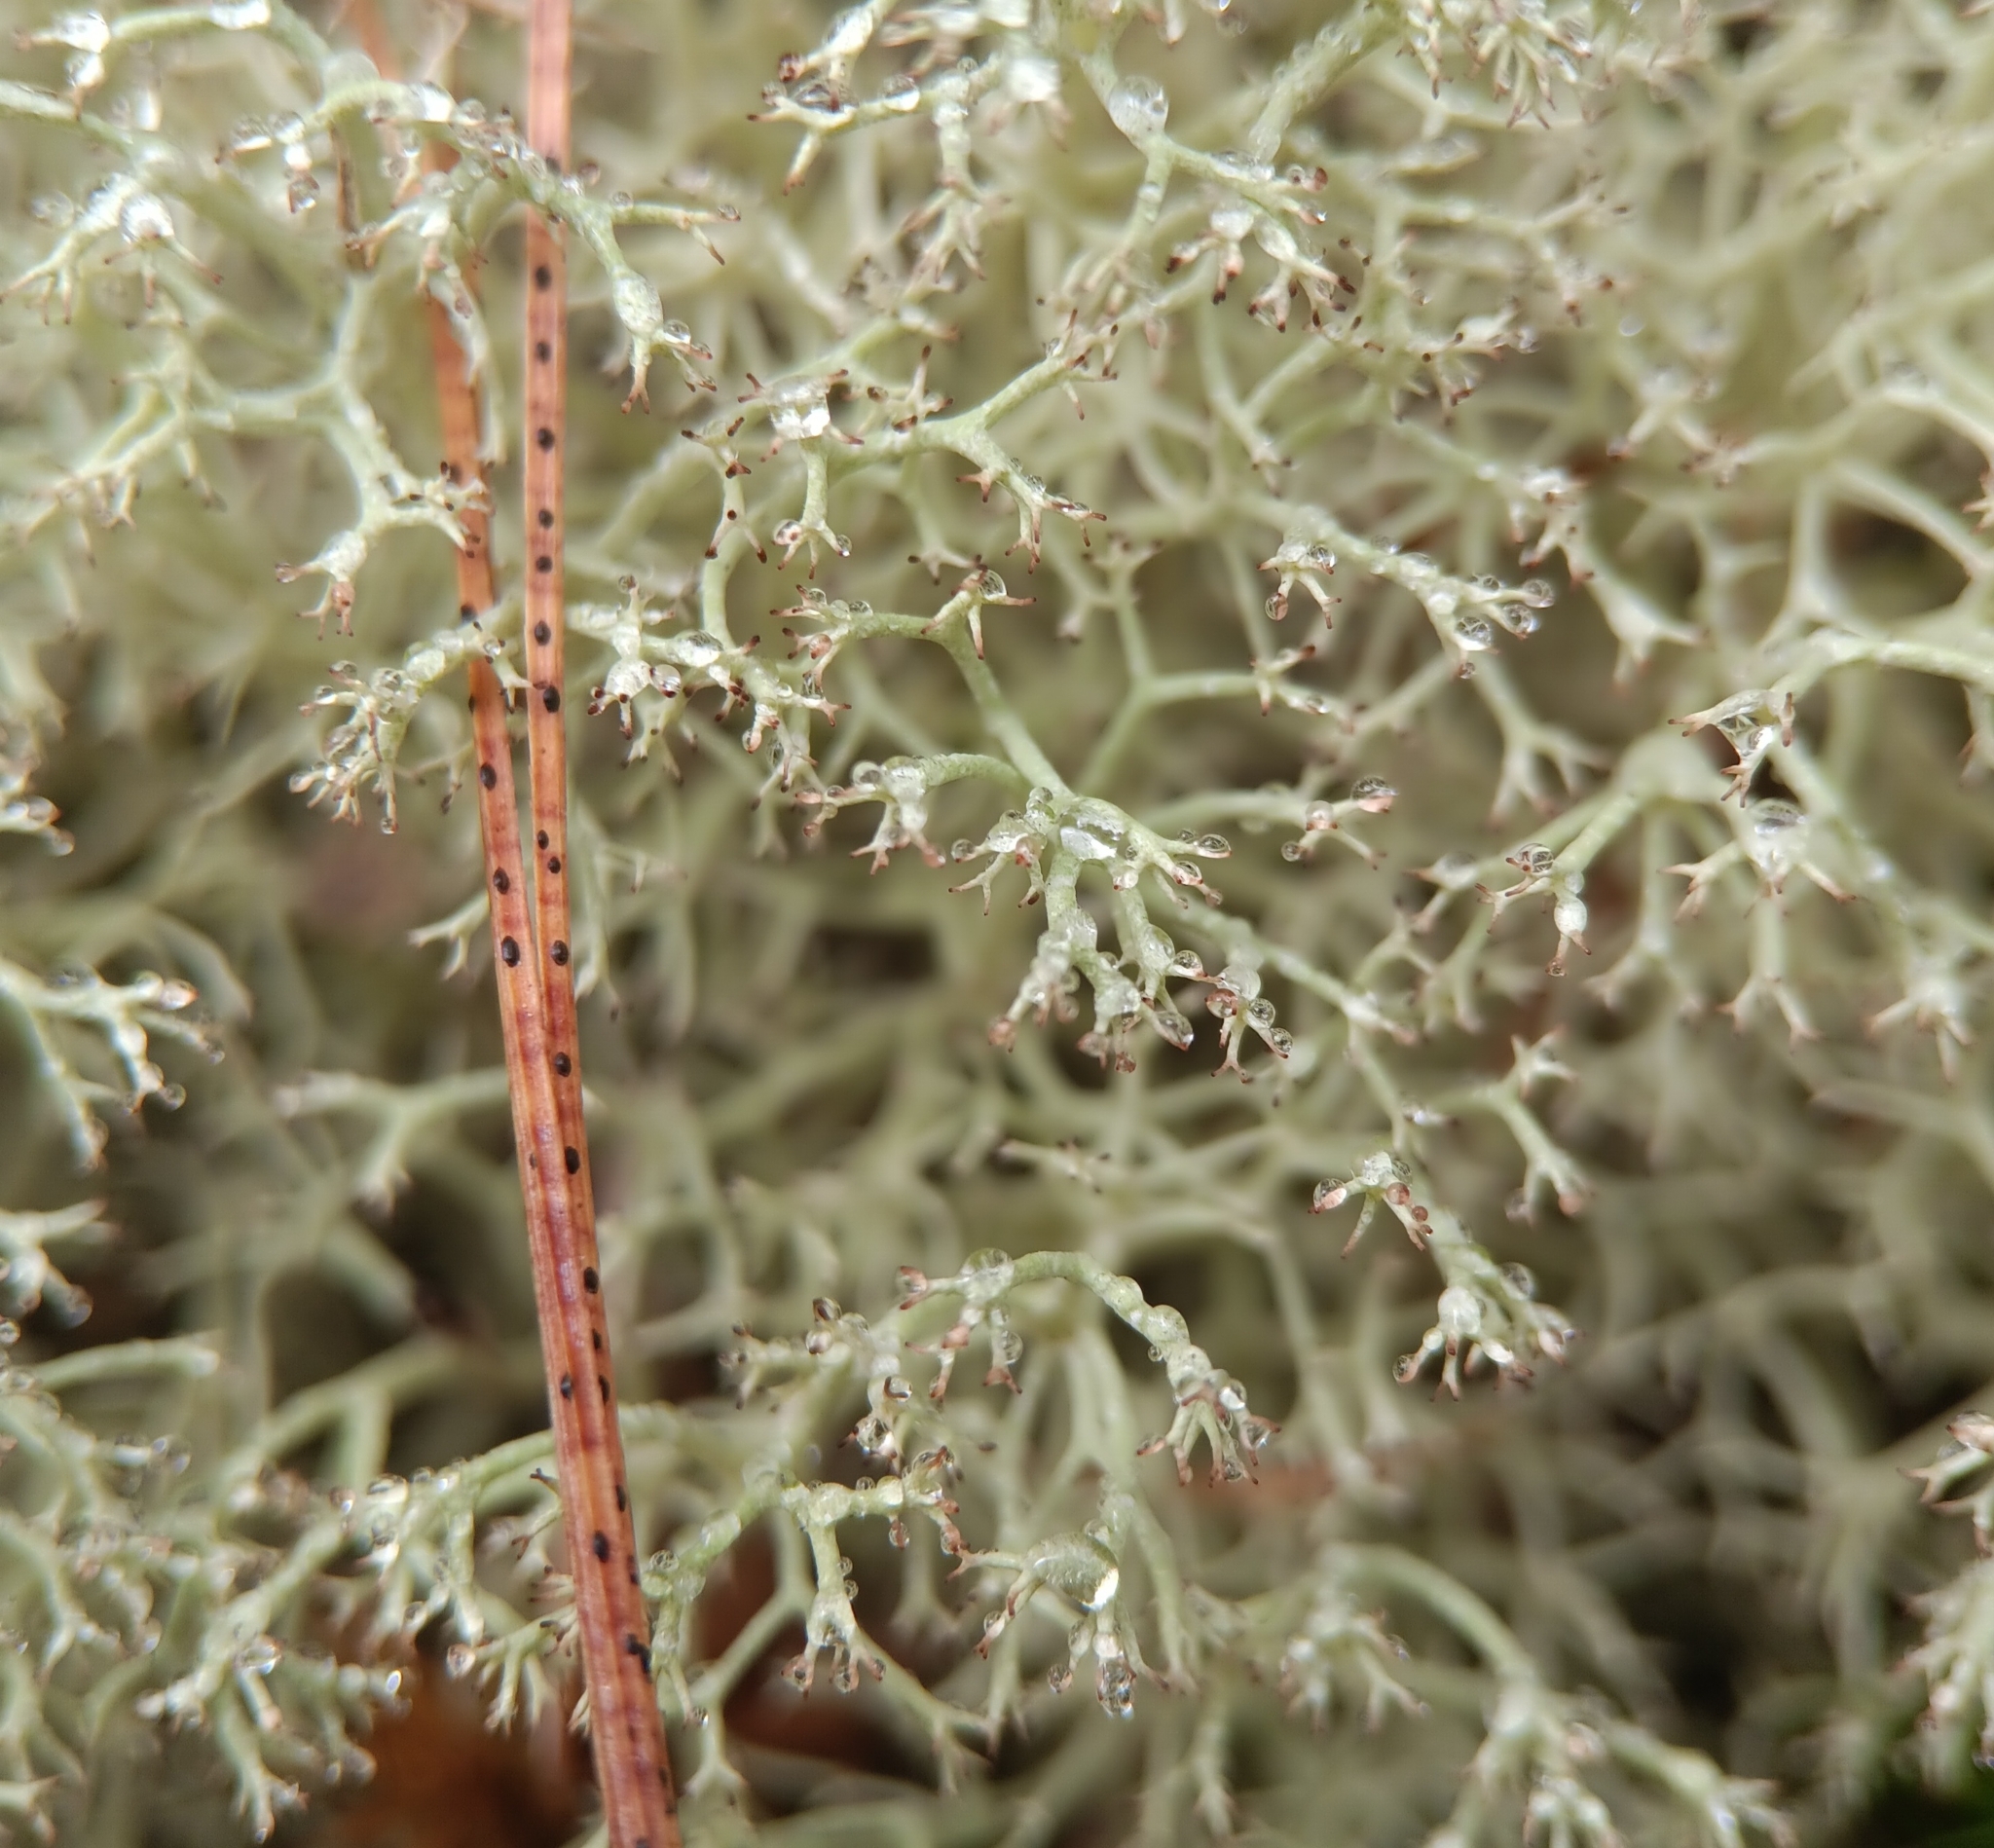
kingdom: Fungi
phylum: Ascomycota
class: Lecanoromycetes
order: Lecanorales
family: Cladoniaceae
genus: Cladonia
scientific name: Cladonia subtenuis
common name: Dixie reindeer lichen
